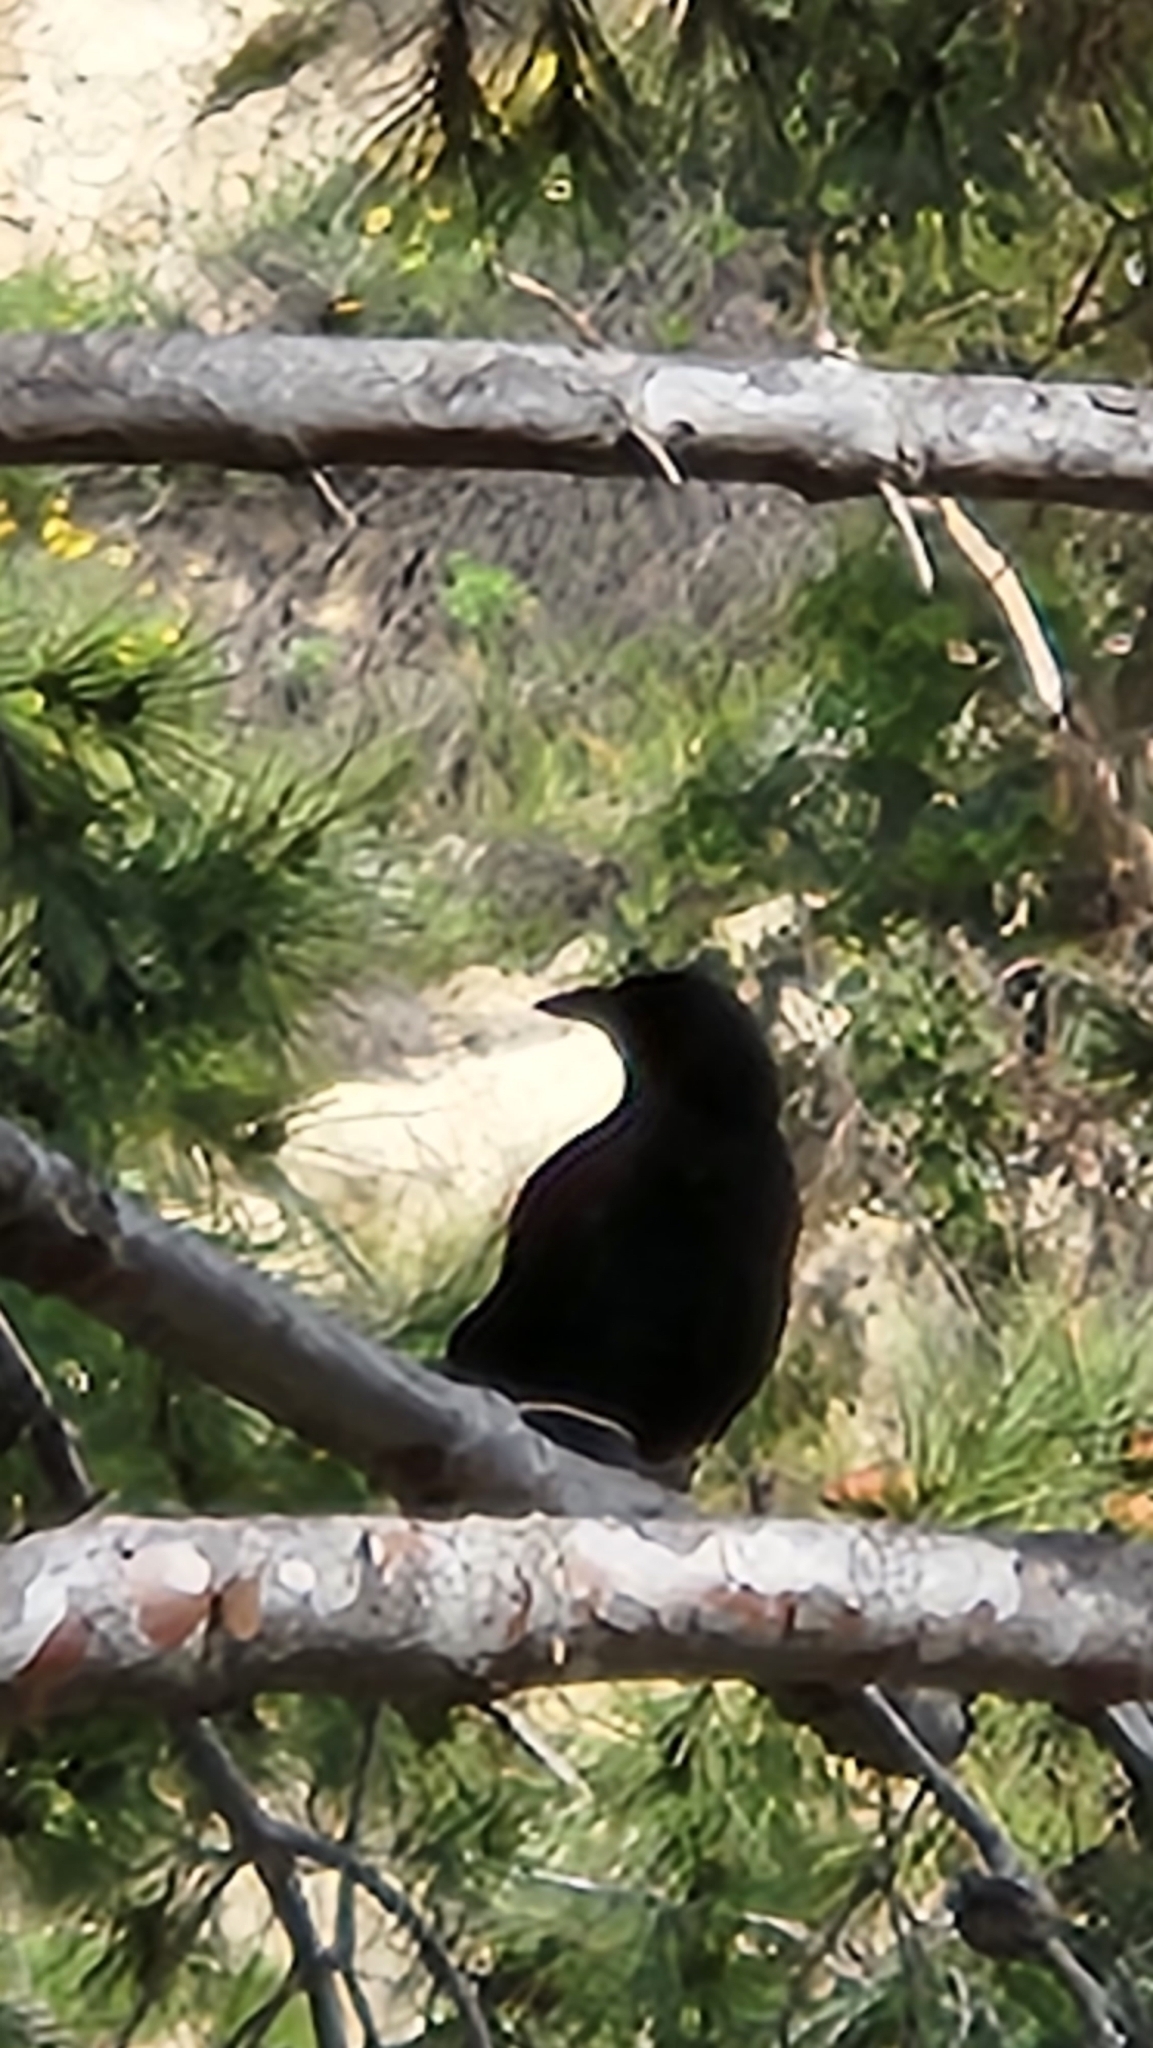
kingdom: Animalia
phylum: Chordata
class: Aves
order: Passeriformes
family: Corvidae
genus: Corvus
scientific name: Corvus corax
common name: Common raven
